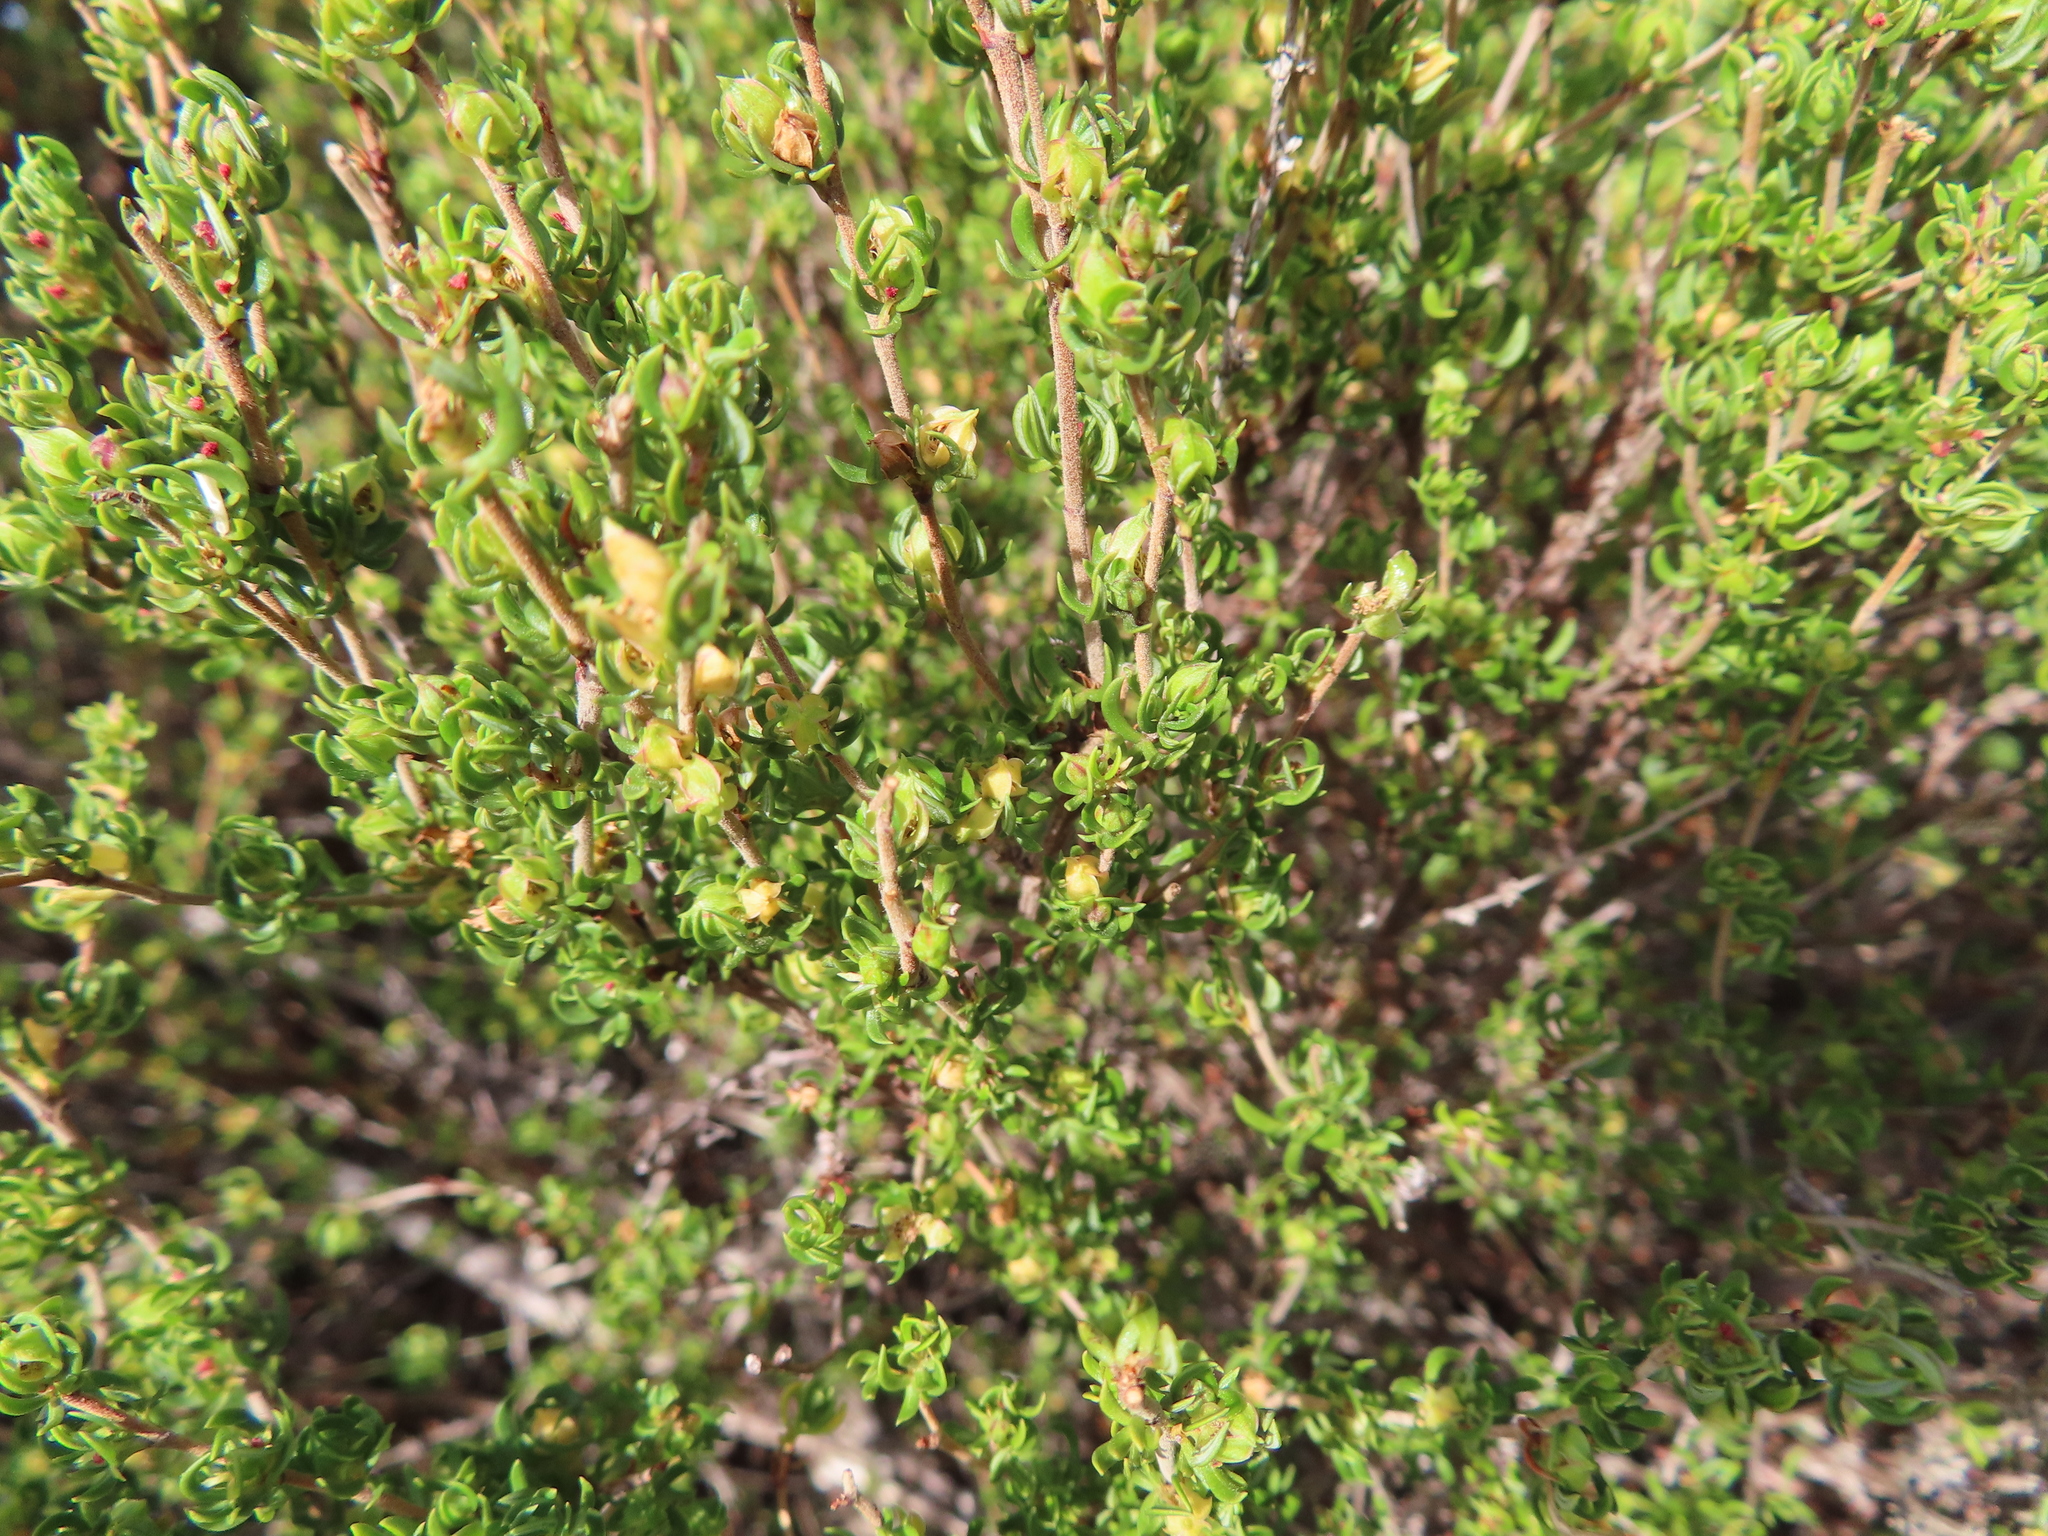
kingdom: Plantae
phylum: Tracheophyta
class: Magnoliopsida
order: Rosales
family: Rosaceae
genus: Cliffortia
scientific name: Cliffortia falcata
